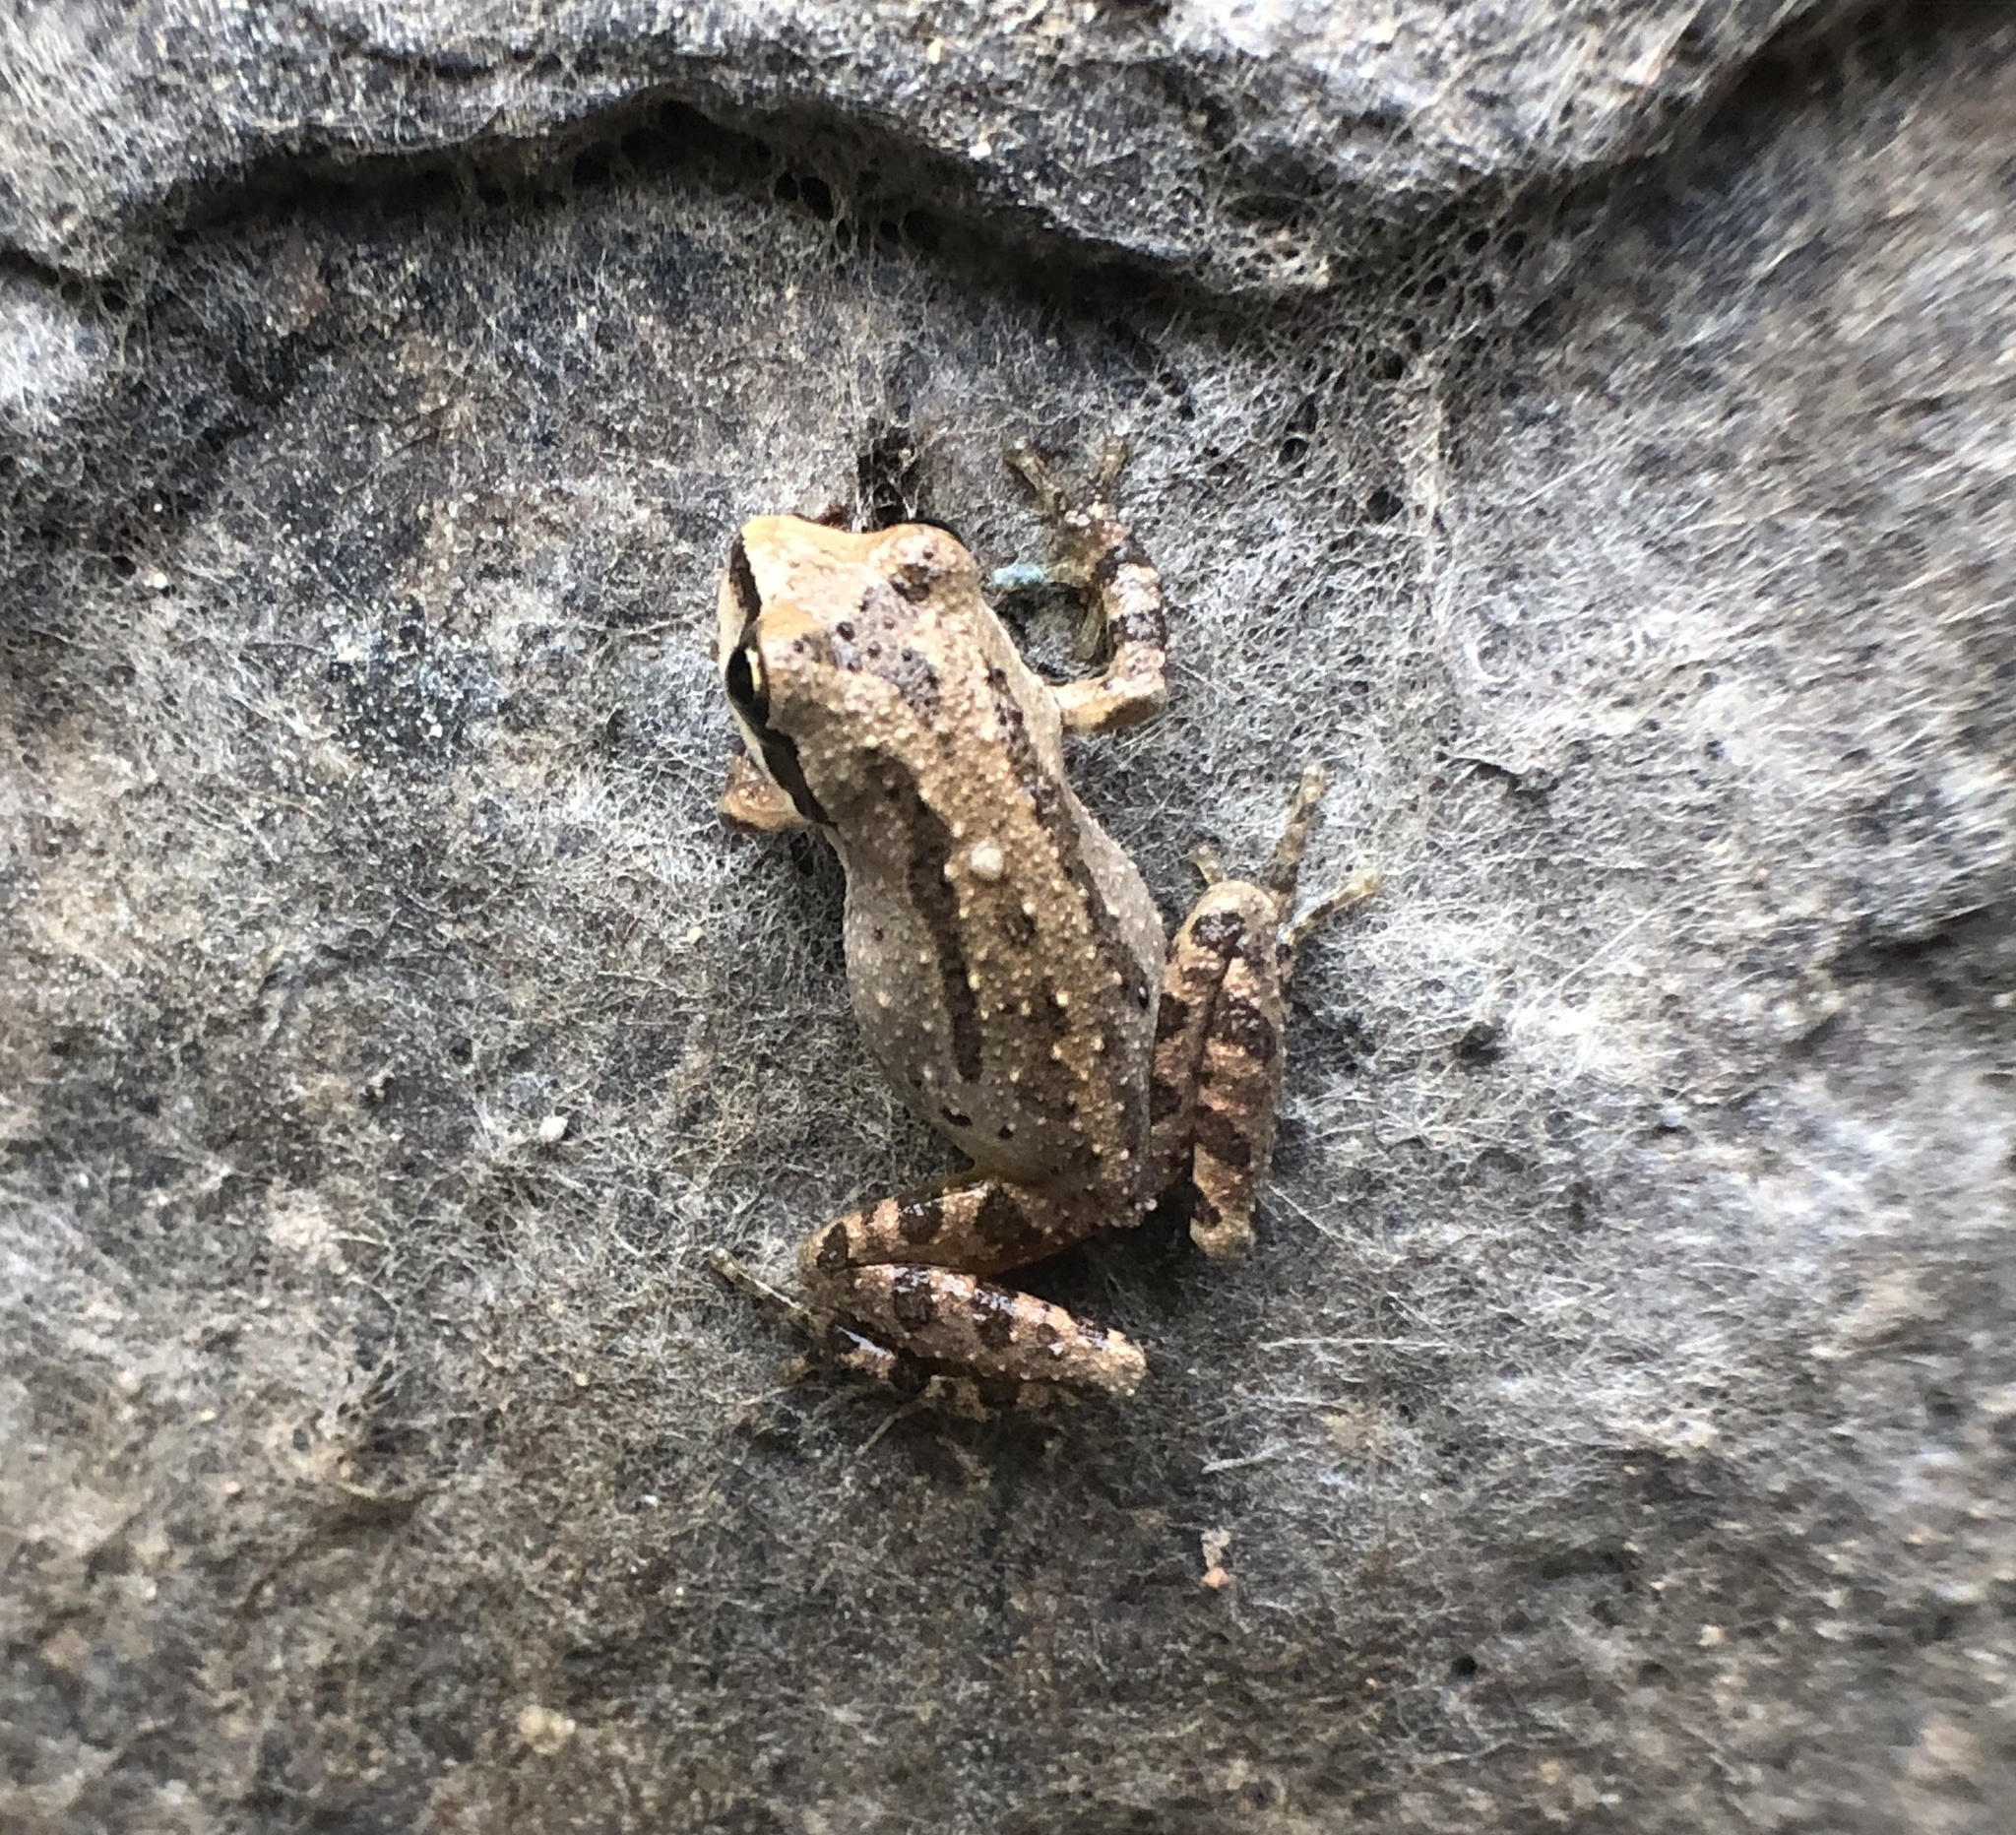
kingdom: Animalia
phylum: Chordata
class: Amphibia
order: Anura
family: Hylidae
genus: Pseudacris
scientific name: Pseudacris regilla
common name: Pacific chorus frog
